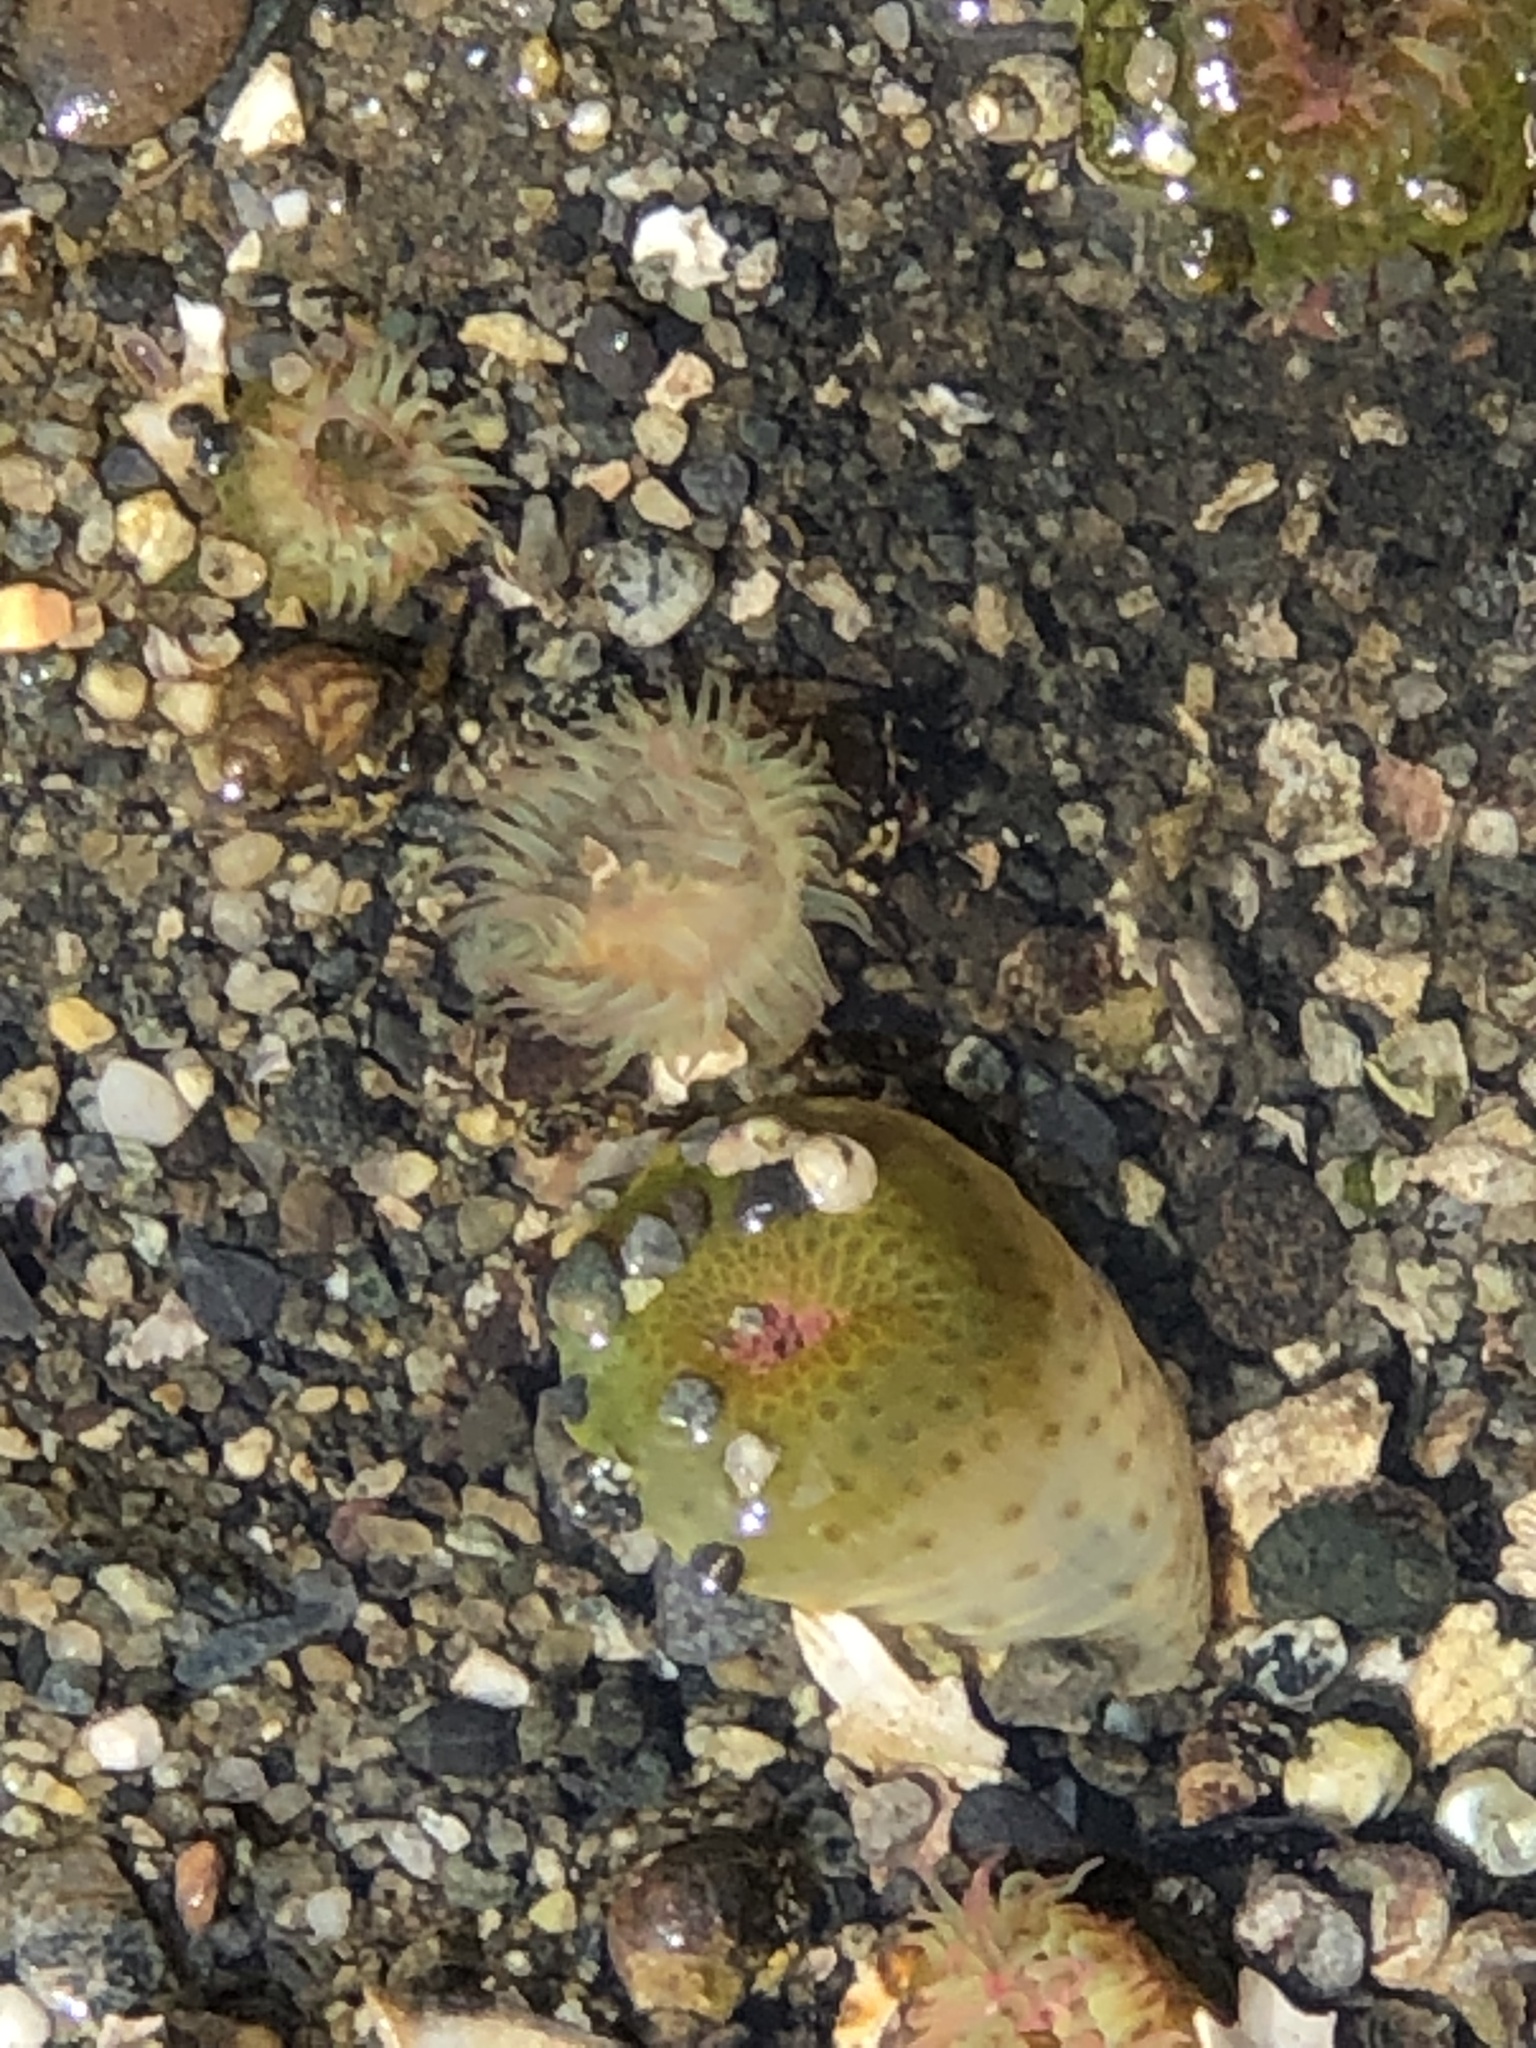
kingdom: Animalia
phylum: Cnidaria
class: Anthozoa
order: Actiniaria
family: Actiniidae
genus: Anthopleura
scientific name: Anthopleura elegantissima
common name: Clonal anemone
